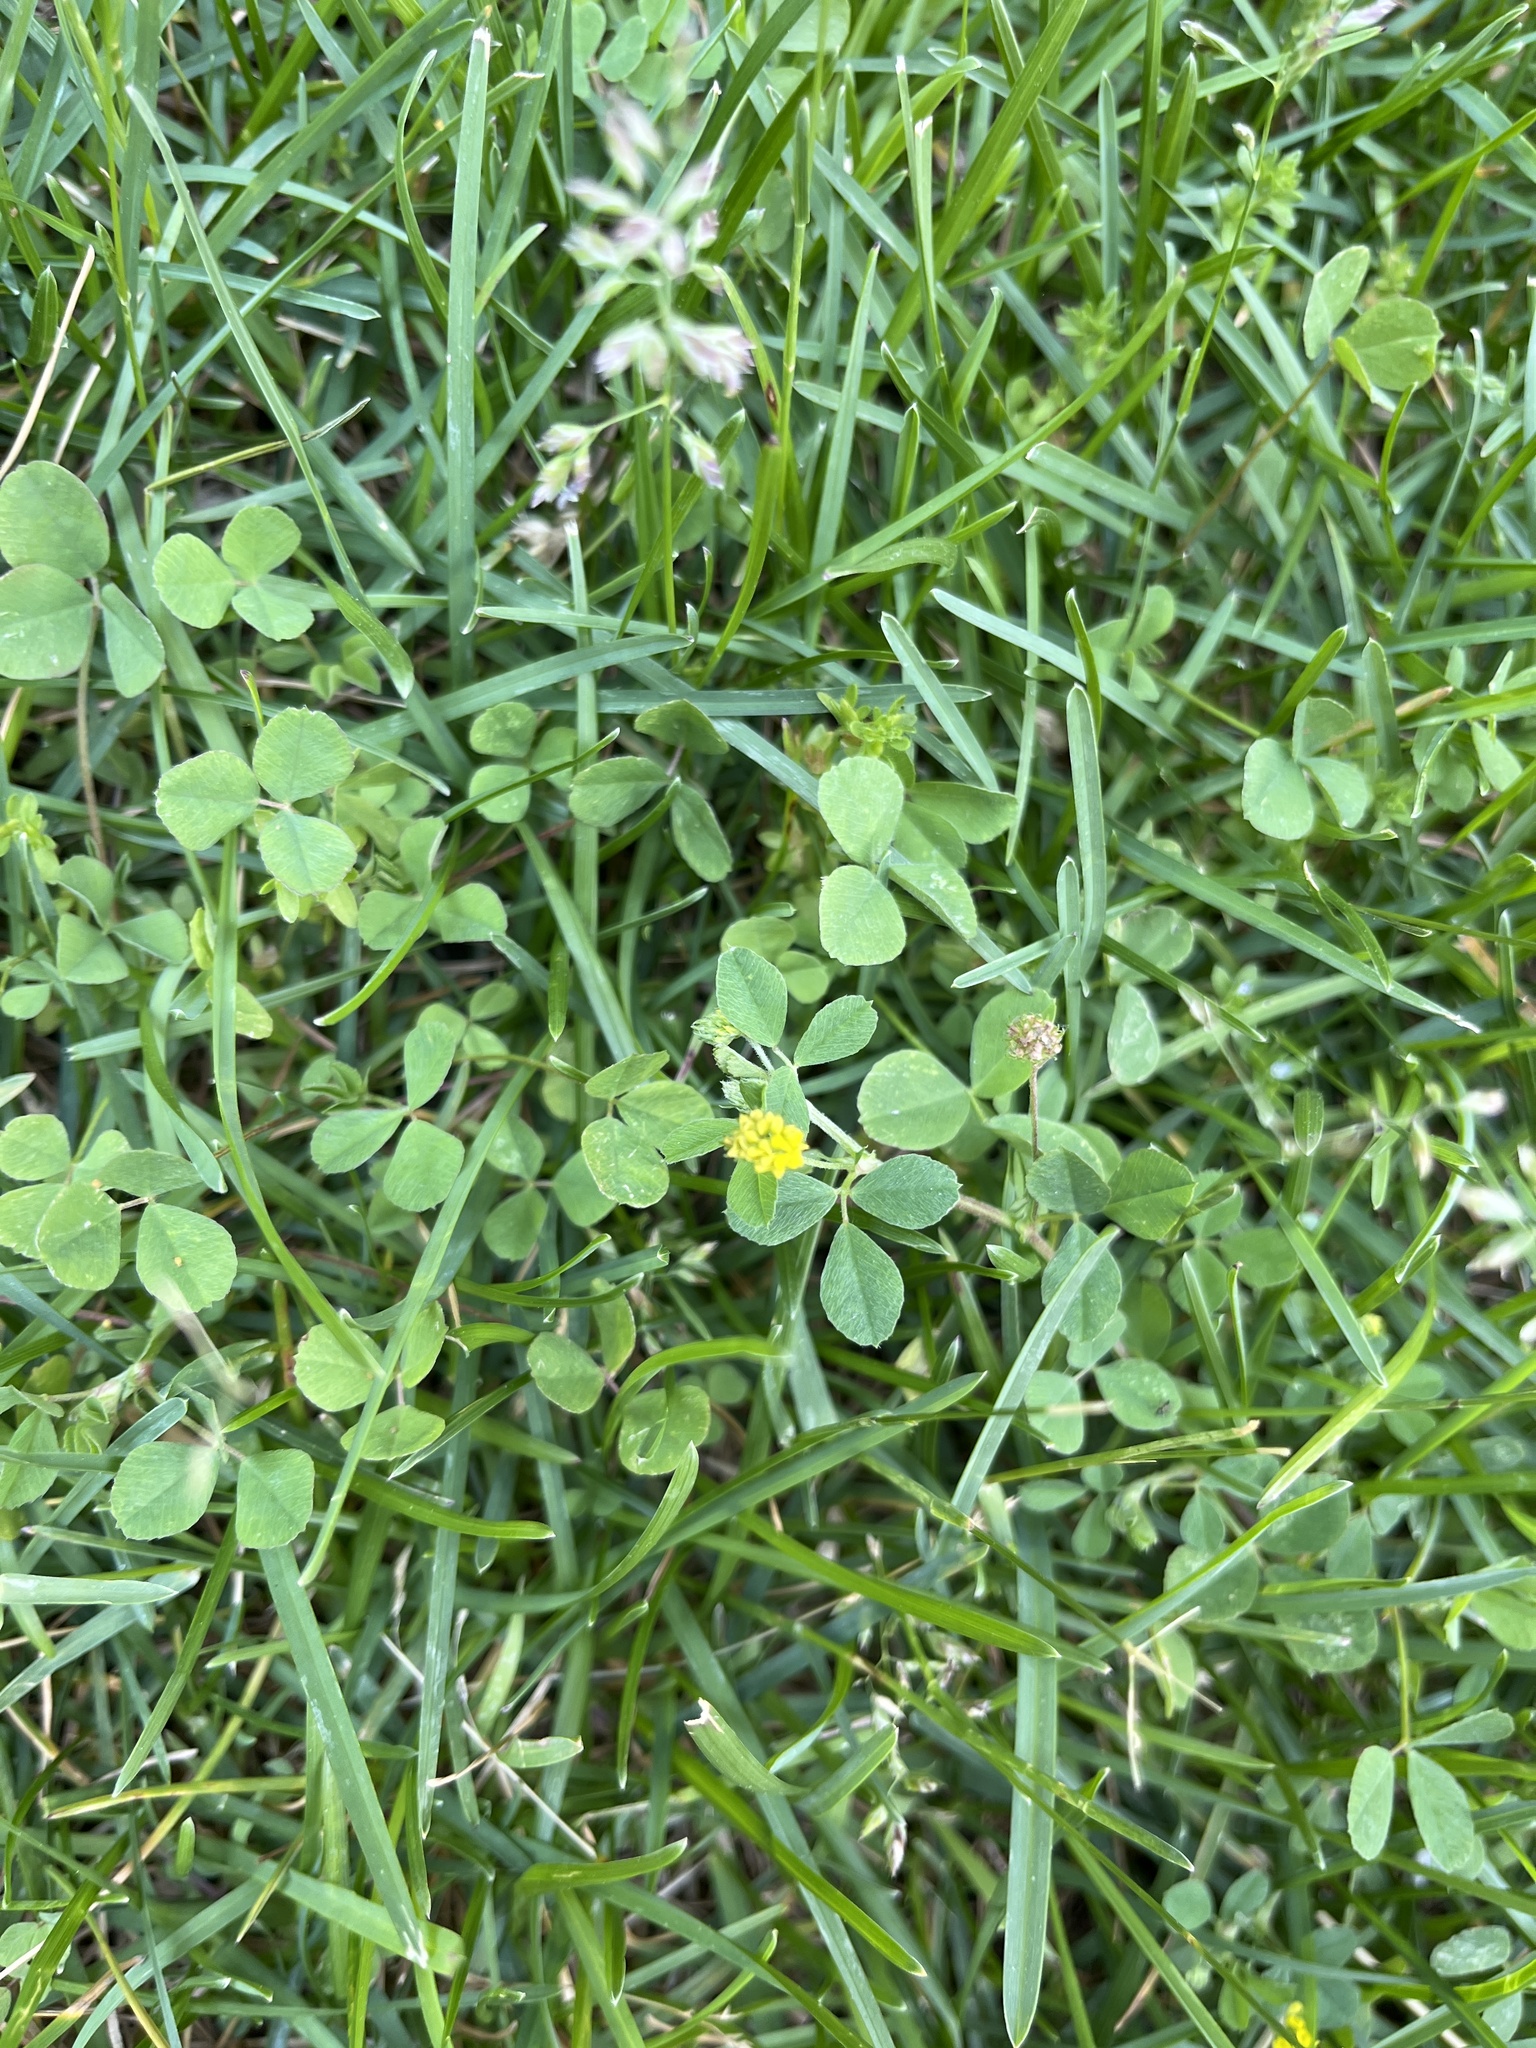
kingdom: Plantae
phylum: Tracheophyta
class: Magnoliopsida
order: Fabales
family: Fabaceae
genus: Medicago
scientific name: Medicago lupulina
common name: Black medick
